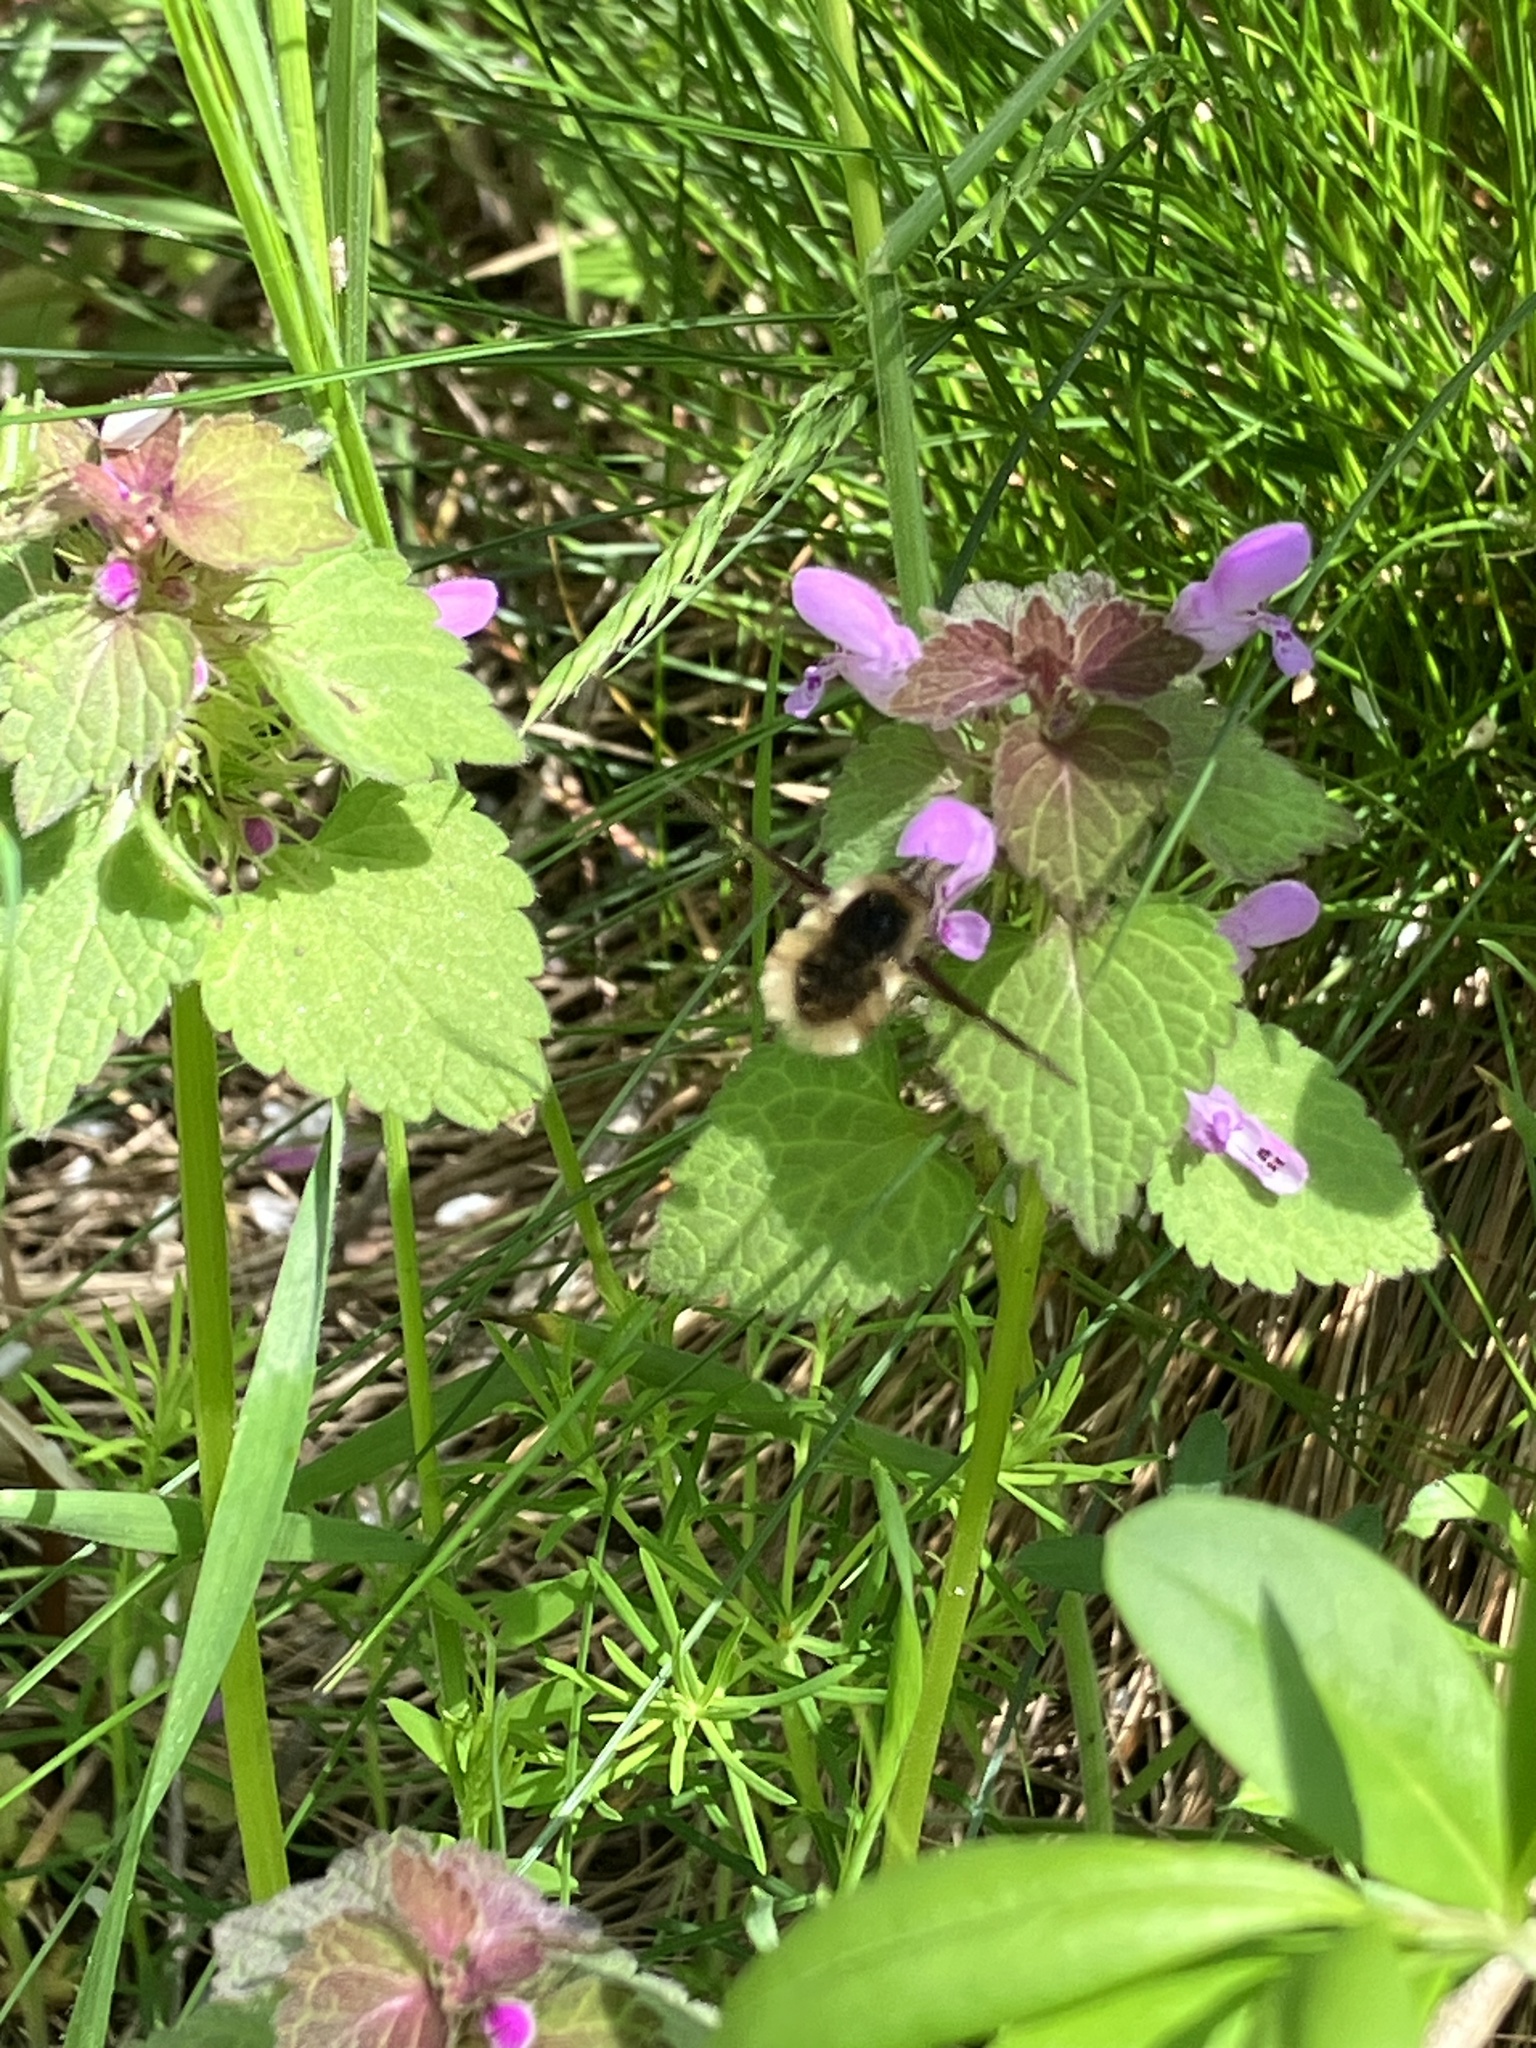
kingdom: Animalia
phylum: Arthropoda
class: Insecta
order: Diptera
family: Bombyliidae
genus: Bombylius
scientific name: Bombylius major
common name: Bee fly
